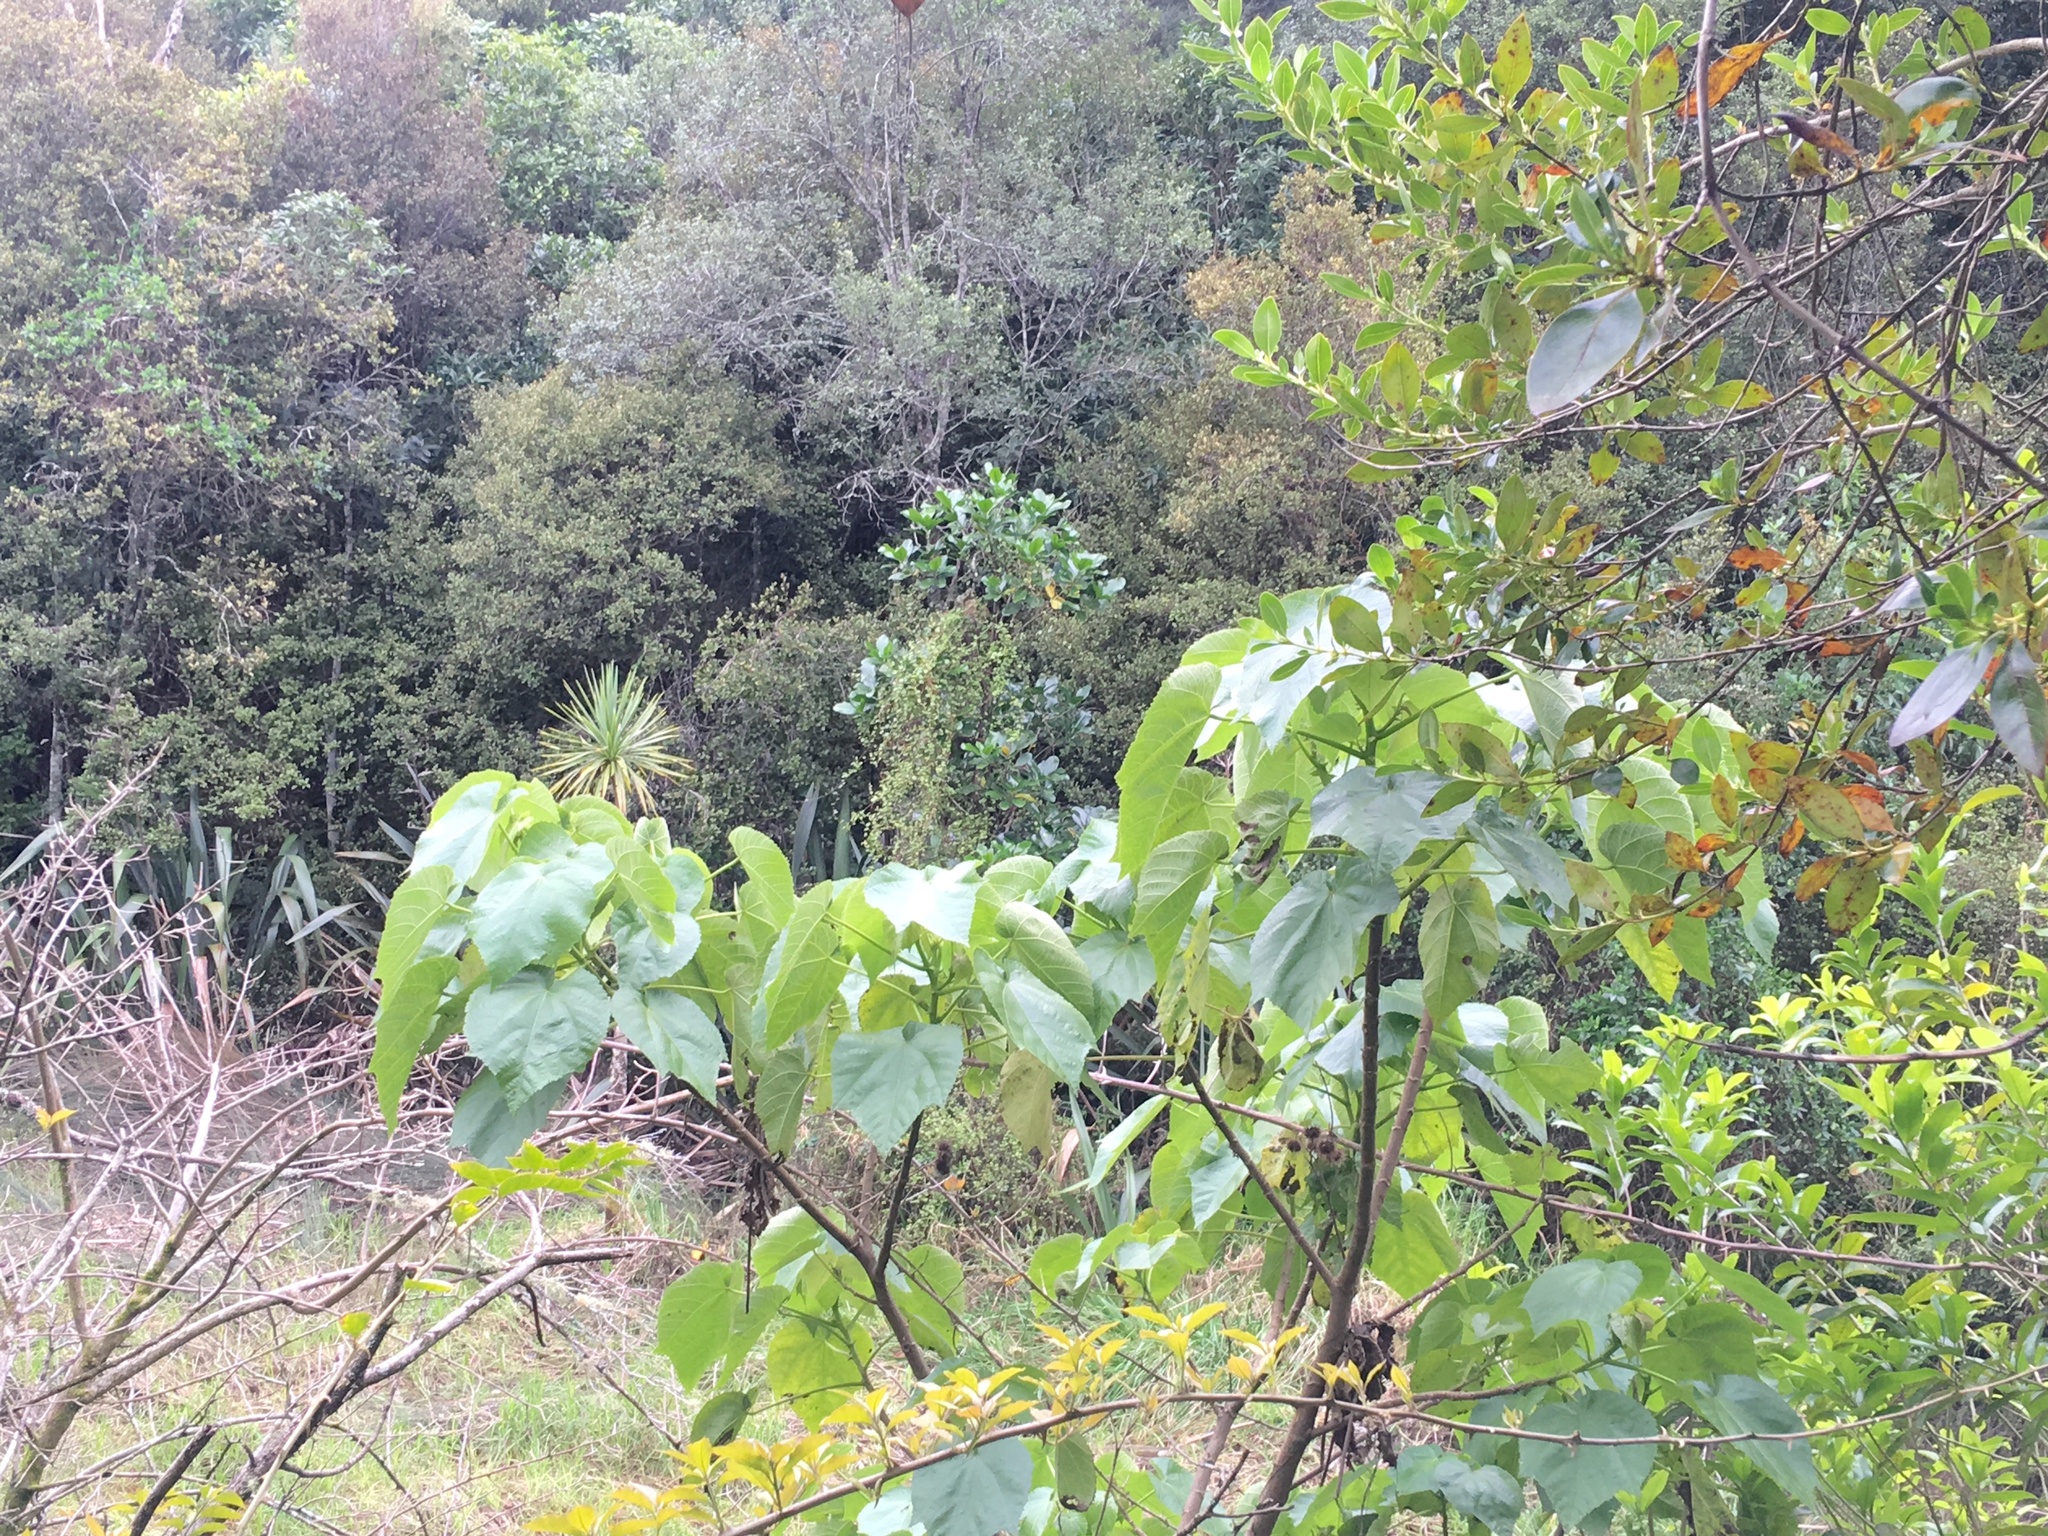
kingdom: Plantae
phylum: Tracheophyta
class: Magnoliopsida
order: Malvales
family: Malvaceae
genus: Entelea
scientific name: Entelea arborescens
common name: New zealand-mulberry
